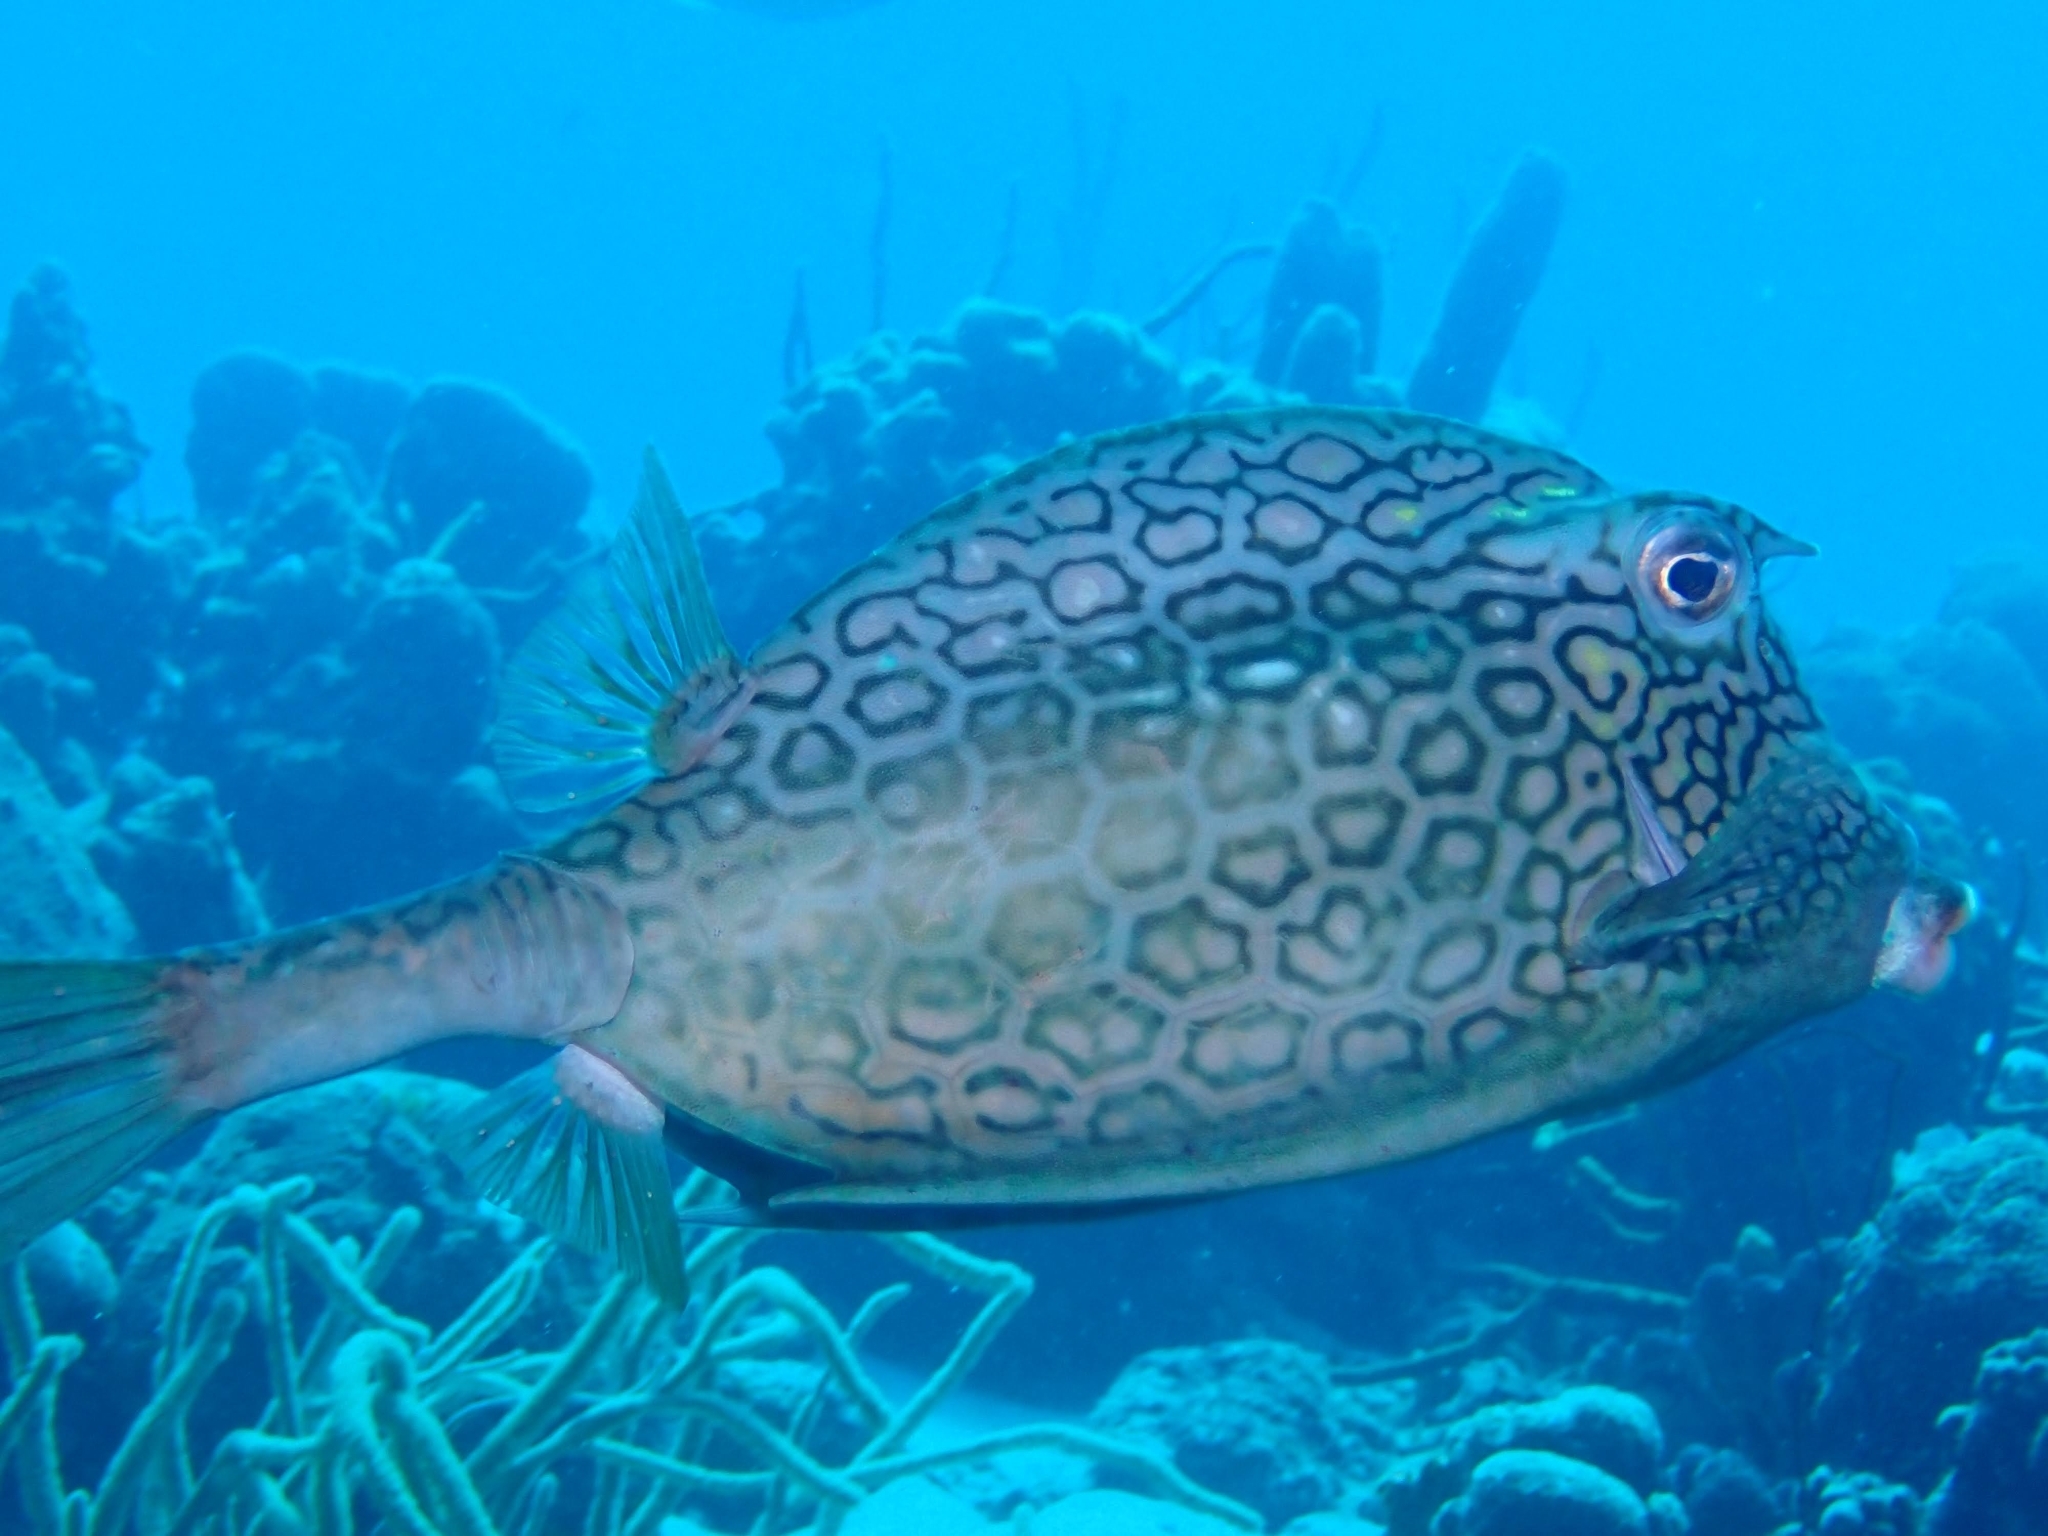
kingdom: Animalia
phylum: Chordata
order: Tetraodontiformes
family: Ostraciidae
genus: Acanthostracion
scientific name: Acanthostracion polygonius
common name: Honeycomb cowfish
